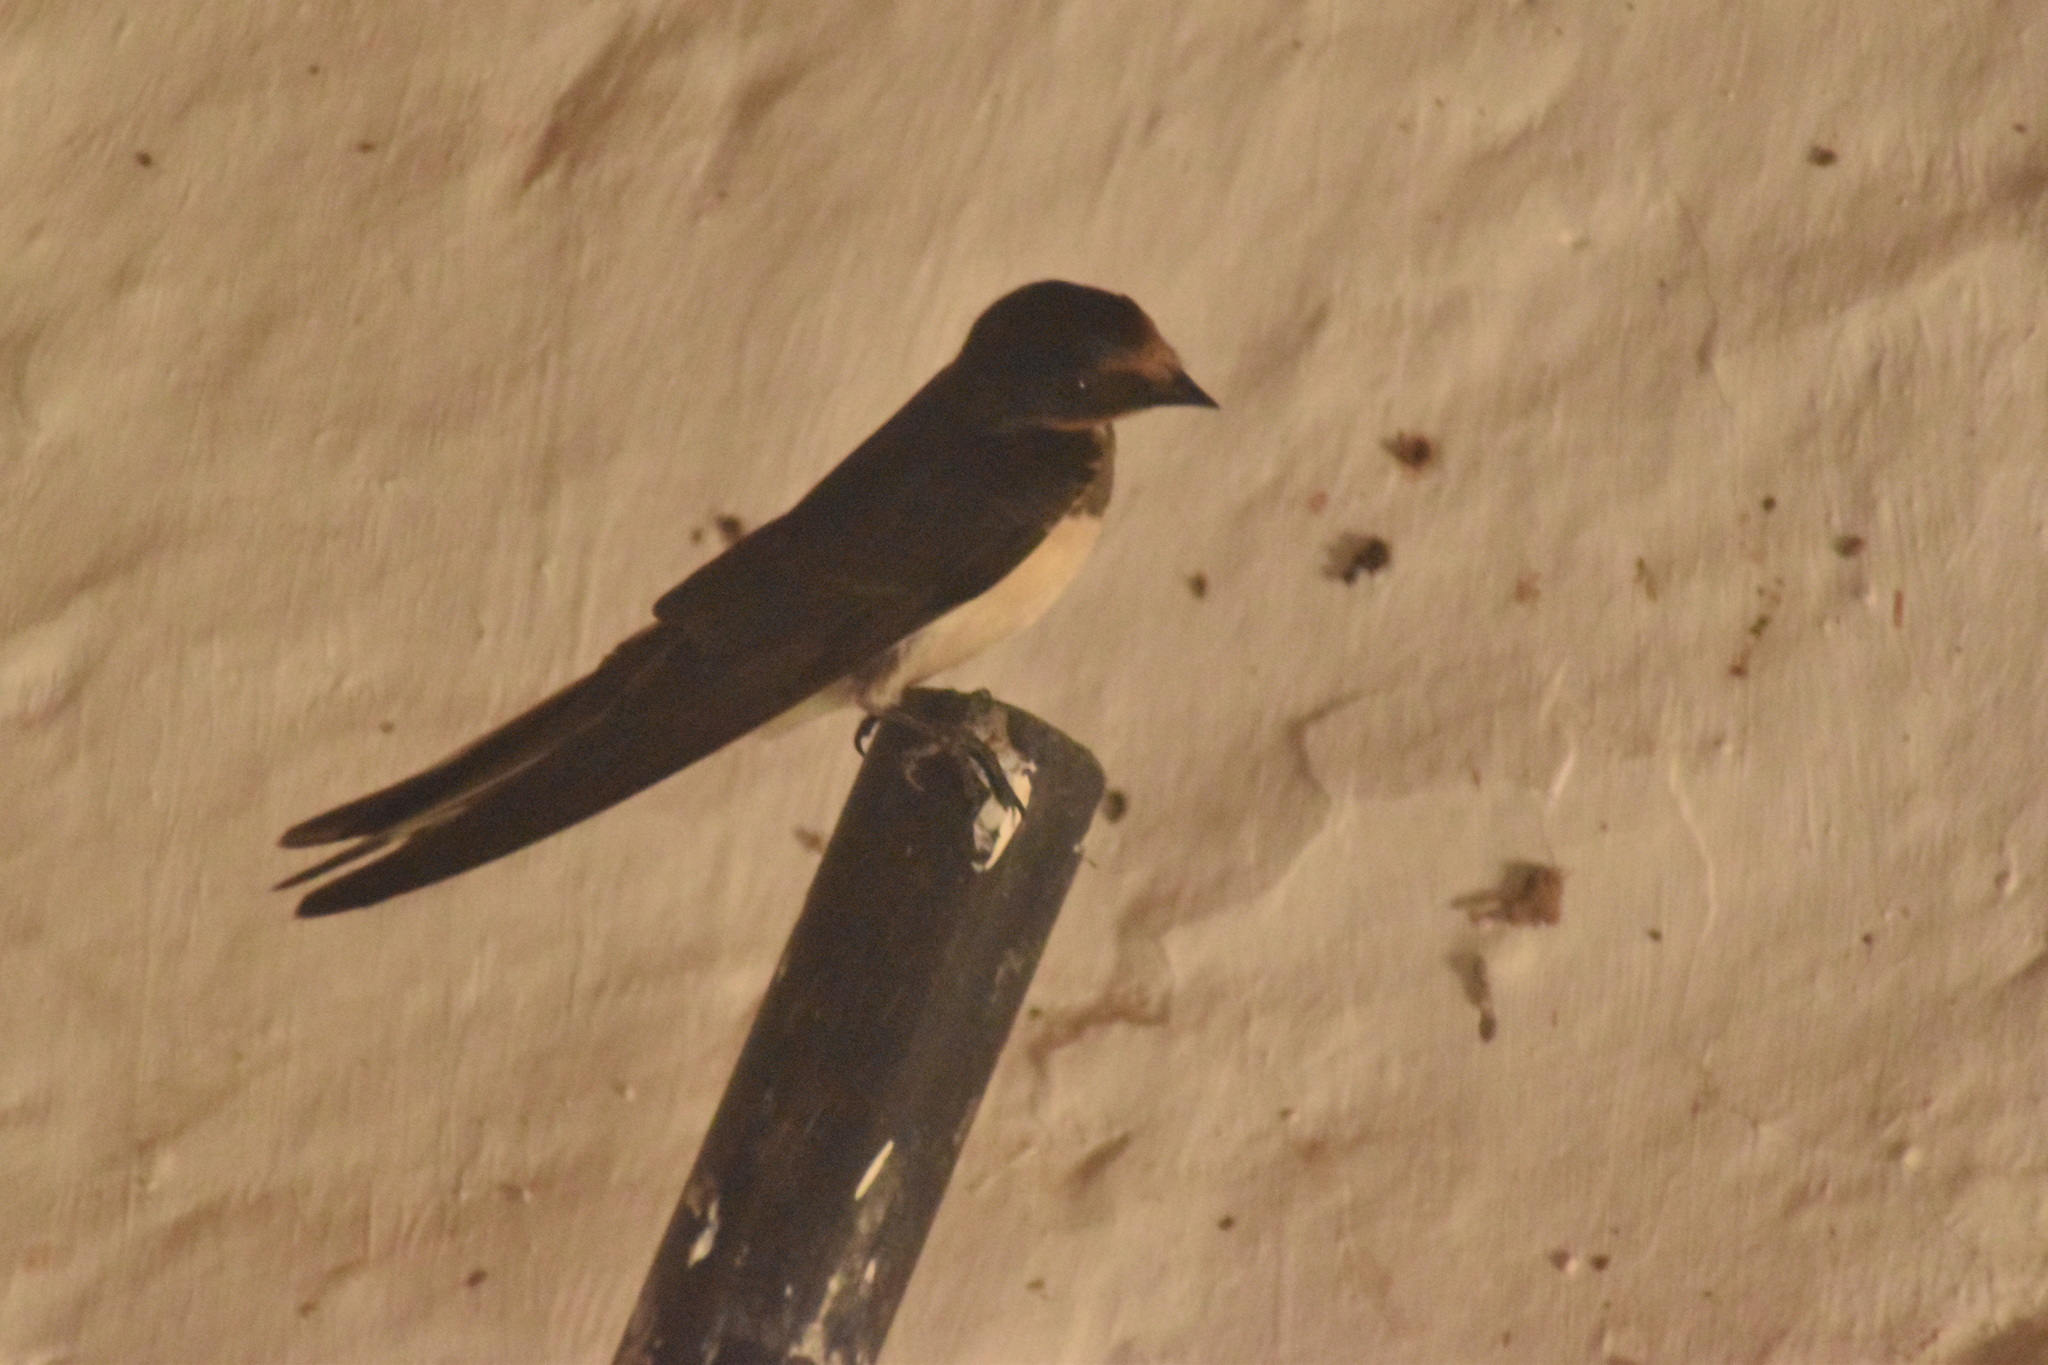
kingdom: Animalia
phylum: Chordata
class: Aves
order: Passeriformes
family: Hirundinidae
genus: Hirundo
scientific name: Hirundo rustica
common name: Barn swallow
